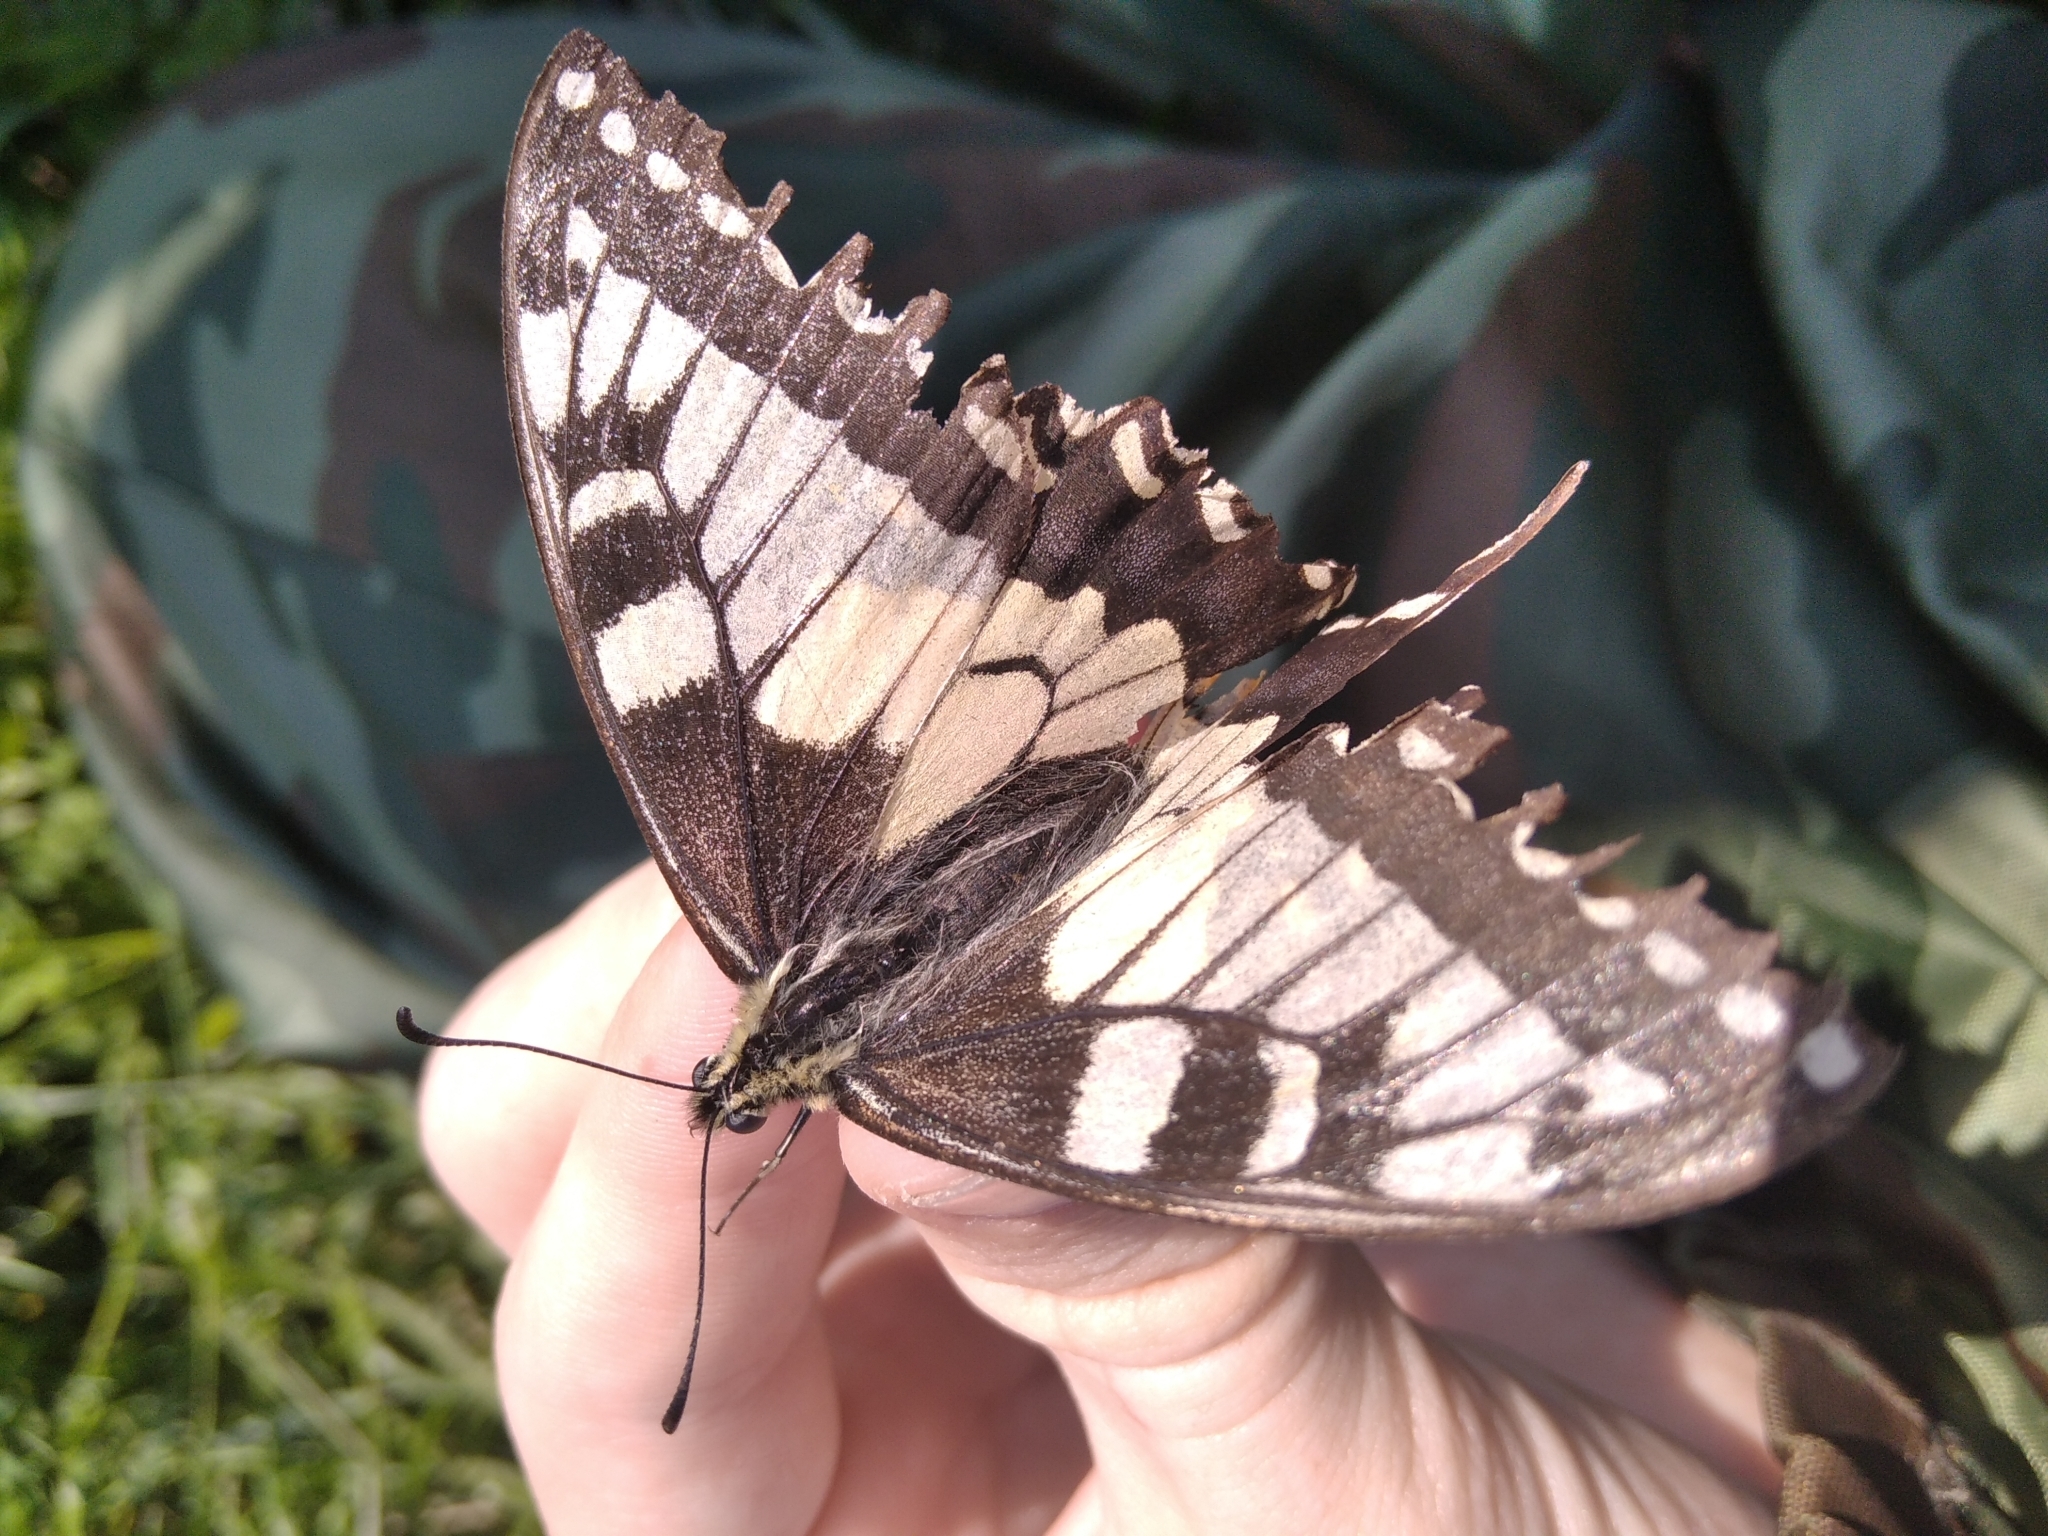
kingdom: Animalia
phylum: Arthropoda
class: Insecta
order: Lepidoptera
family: Papilionidae
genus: Papilio
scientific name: Papilio machaon
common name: Swallowtail
